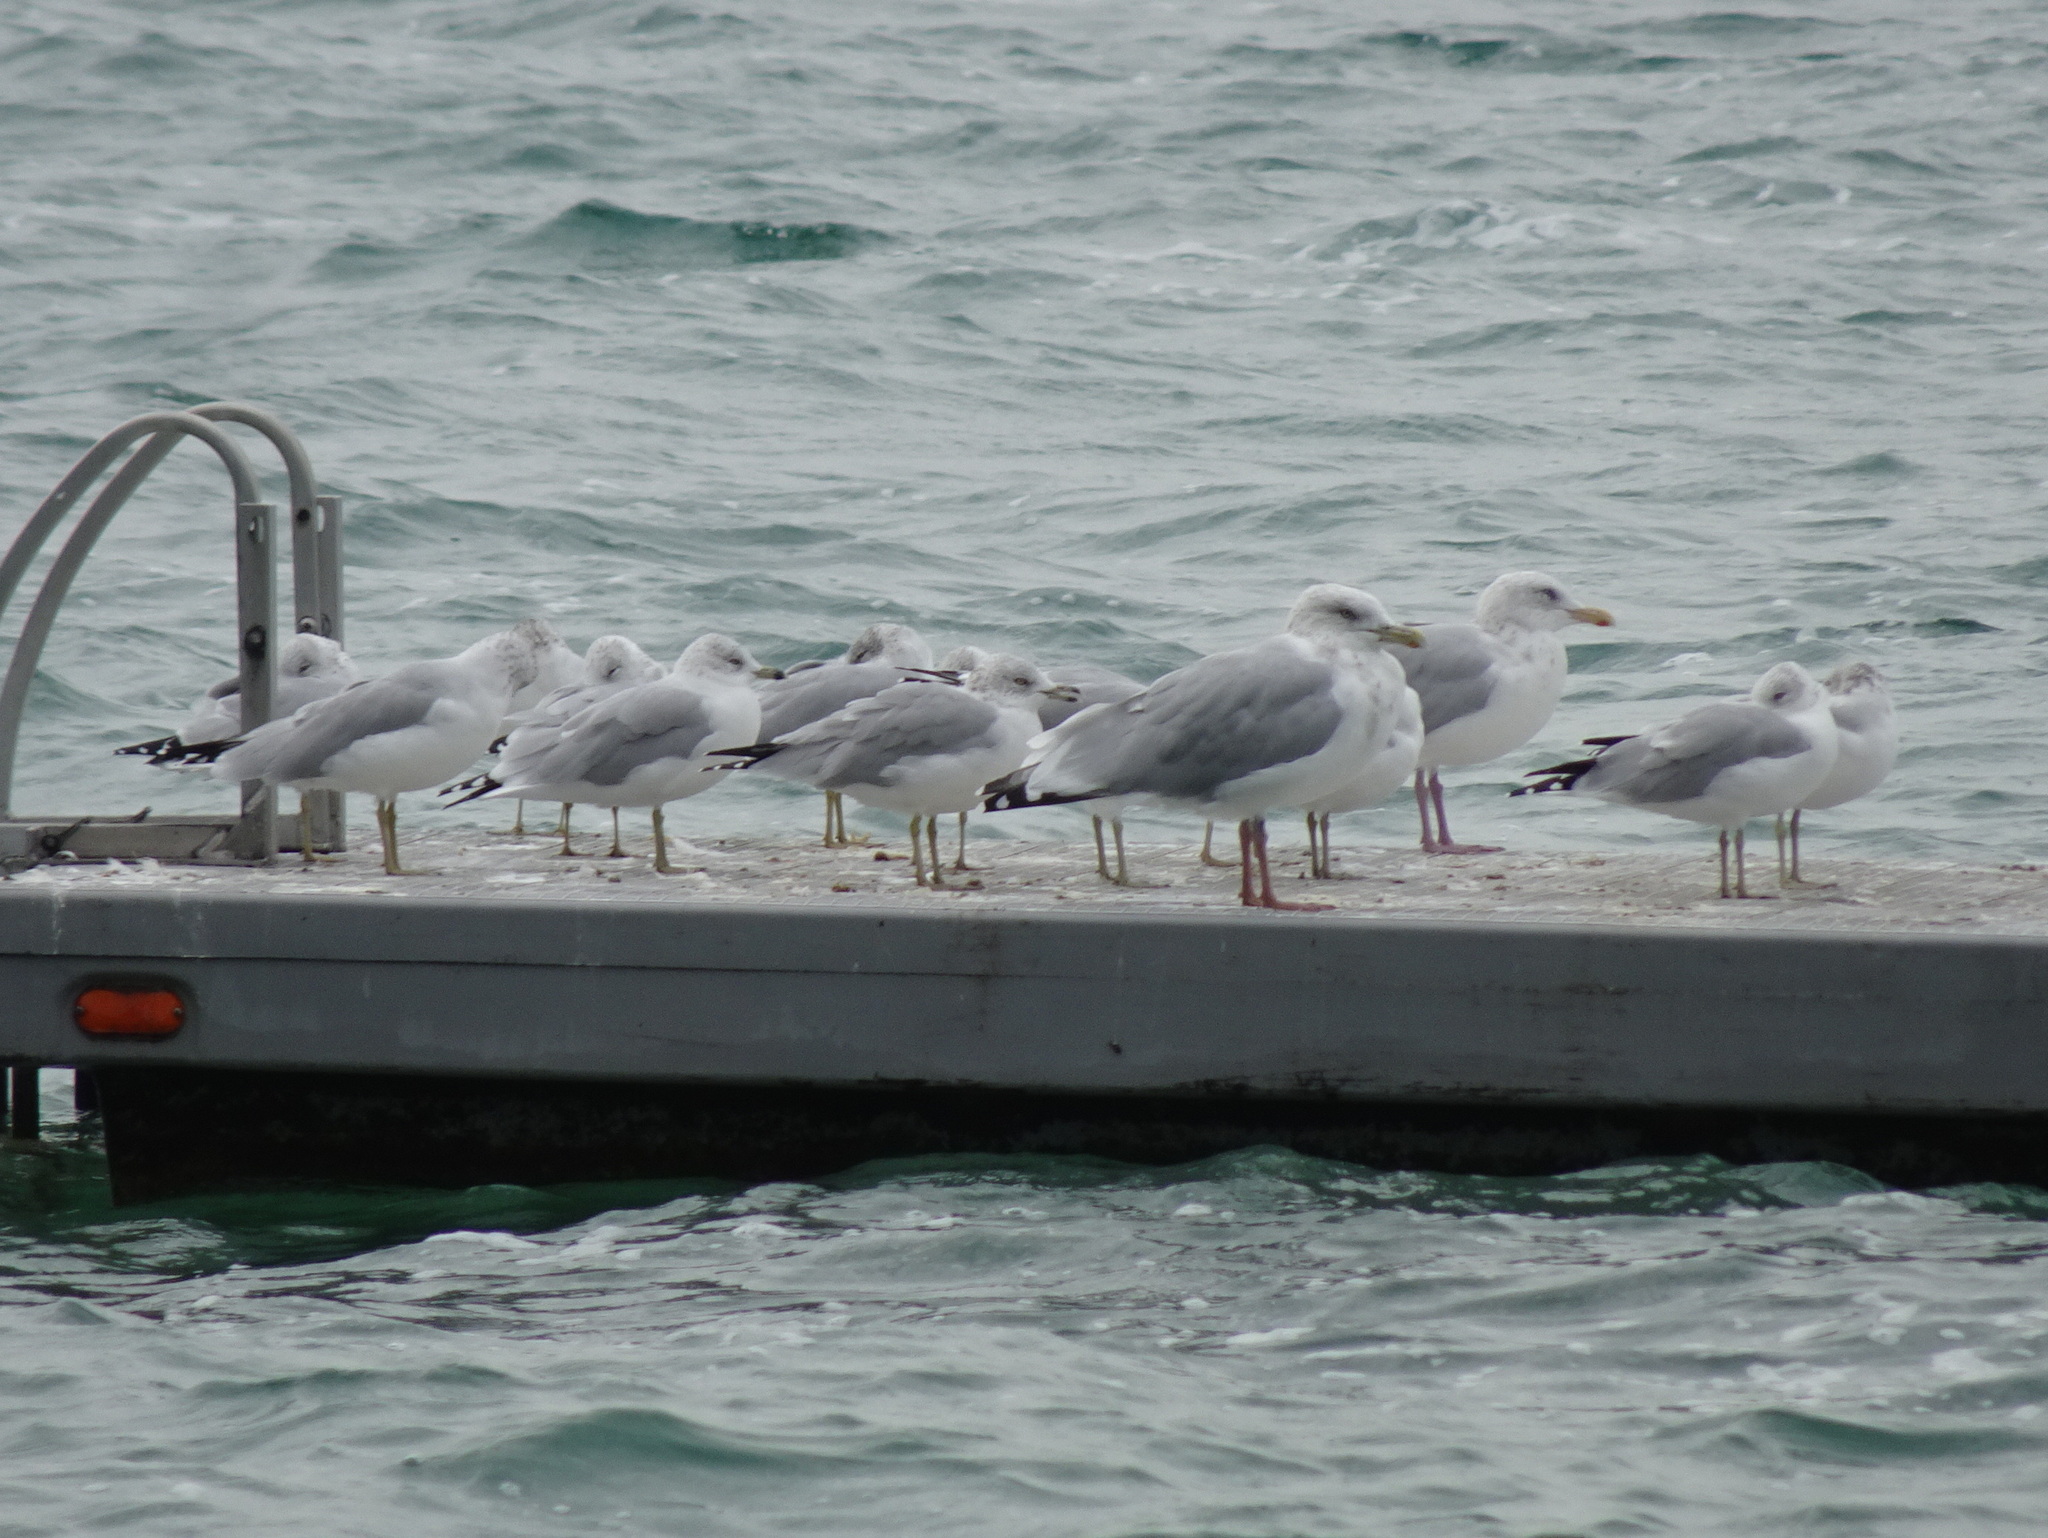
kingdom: Animalia
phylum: Chordata
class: Aves
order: Charadriiformes
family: Laridae
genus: Larus
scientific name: Larus argentatus
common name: Herring gull
